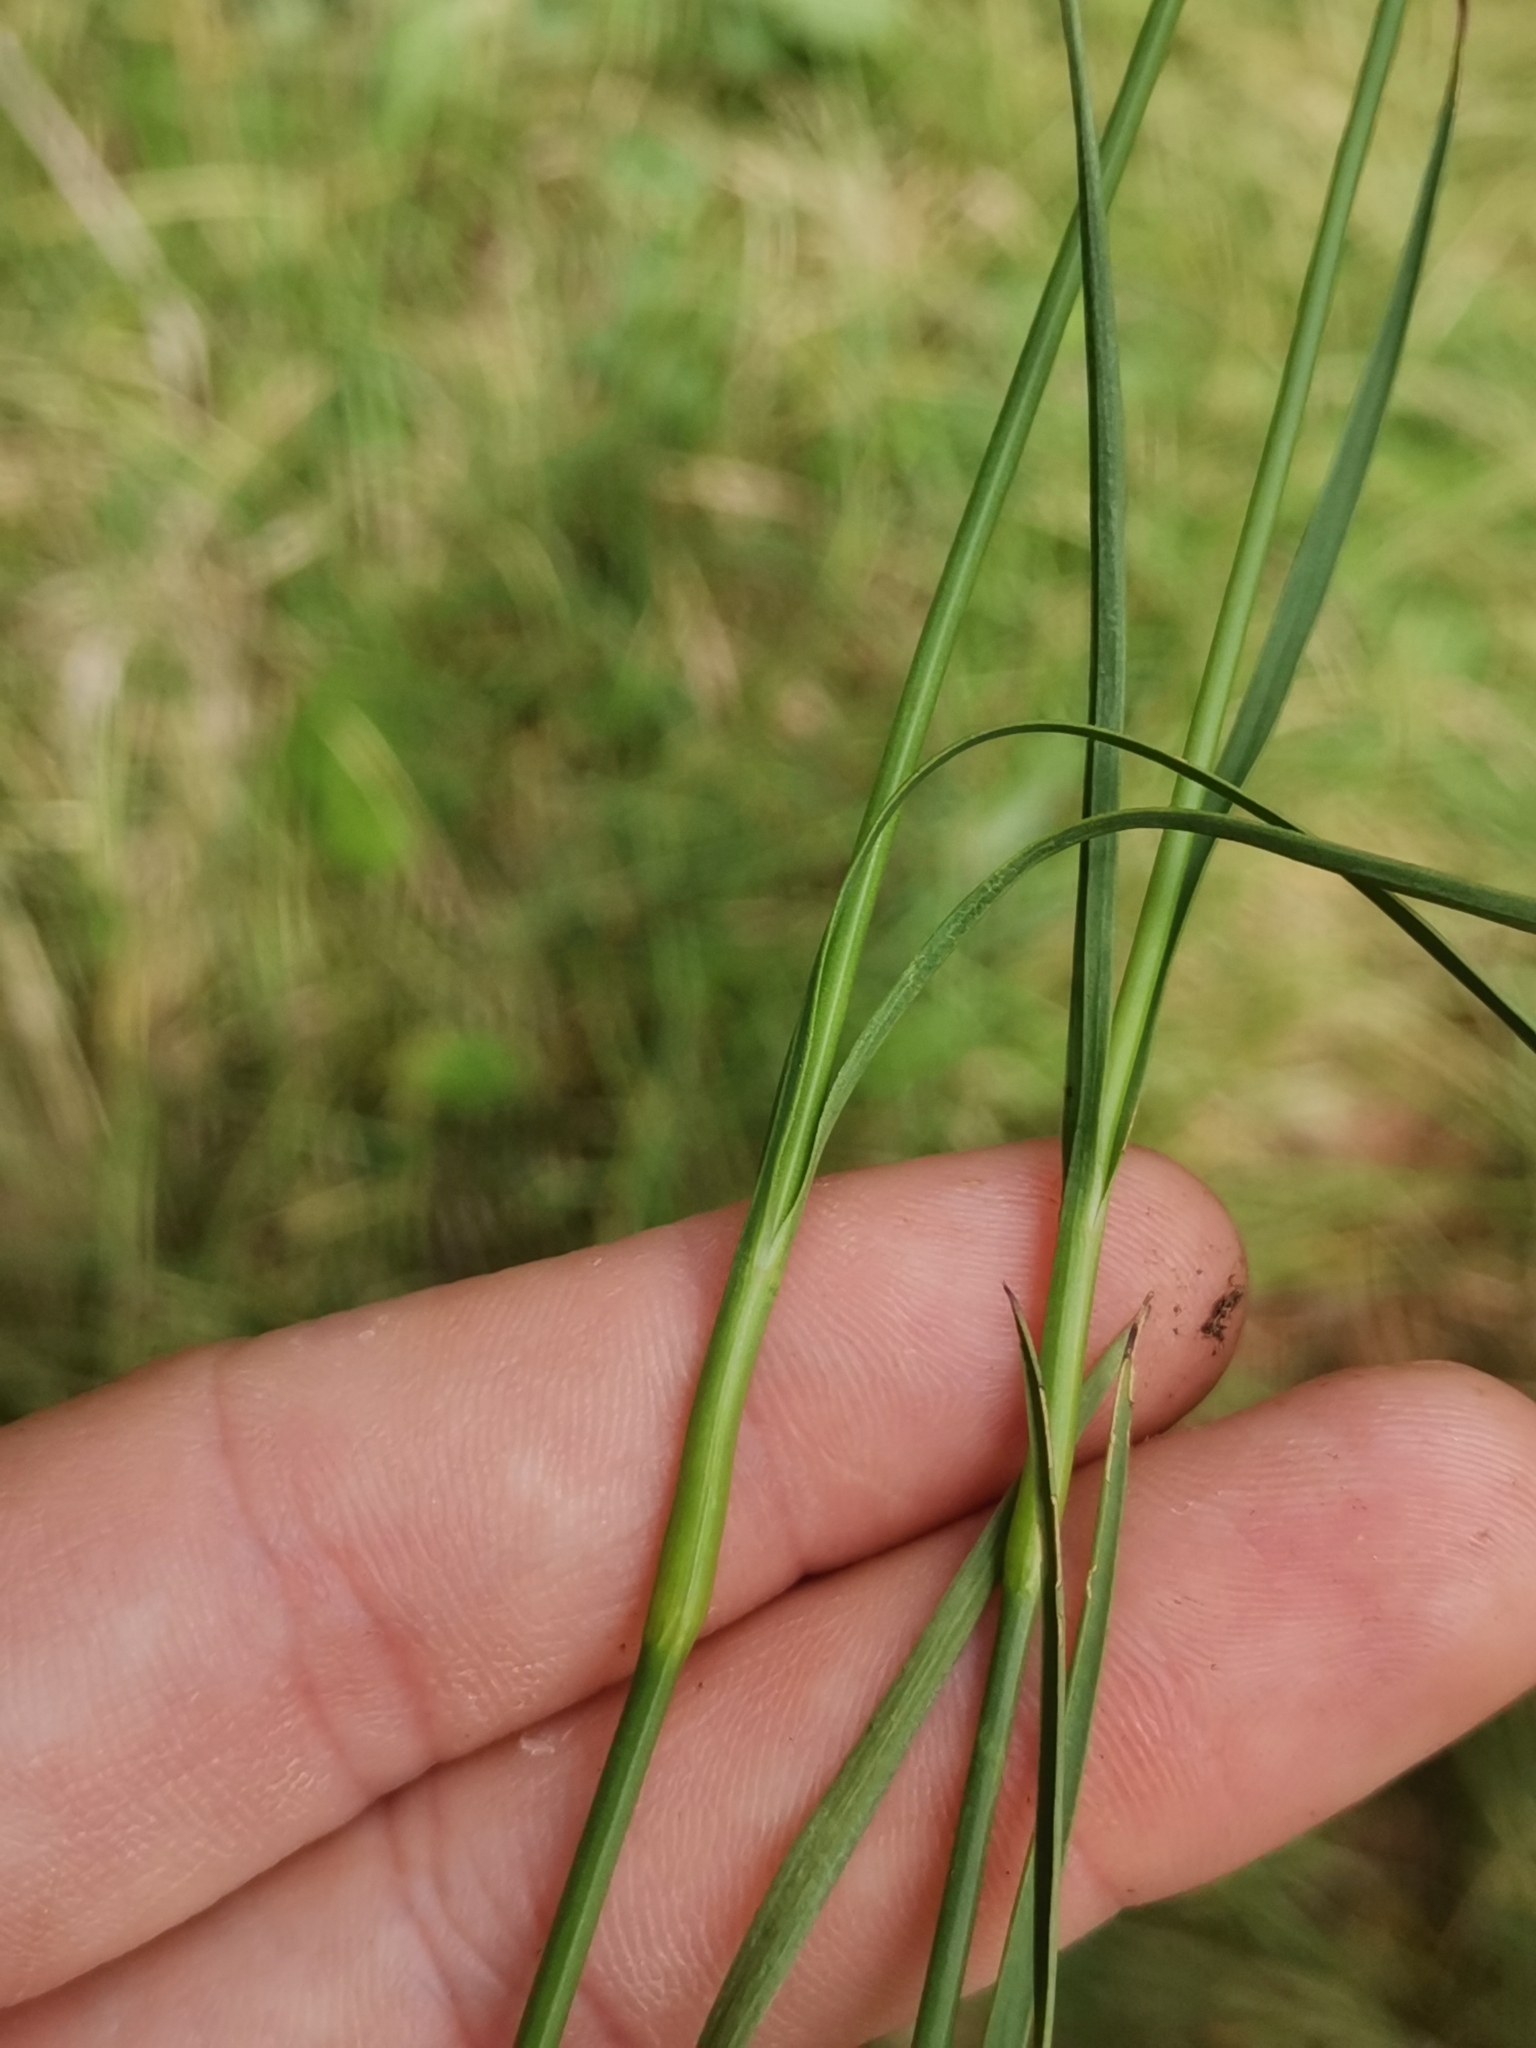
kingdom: Plantae
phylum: Tracheophyta
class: Magnoliopsida
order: Caryophyllales
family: Caryophyllaceae
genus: Dianthus
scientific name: Dianthus carthusianorum
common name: Carthusian pink
